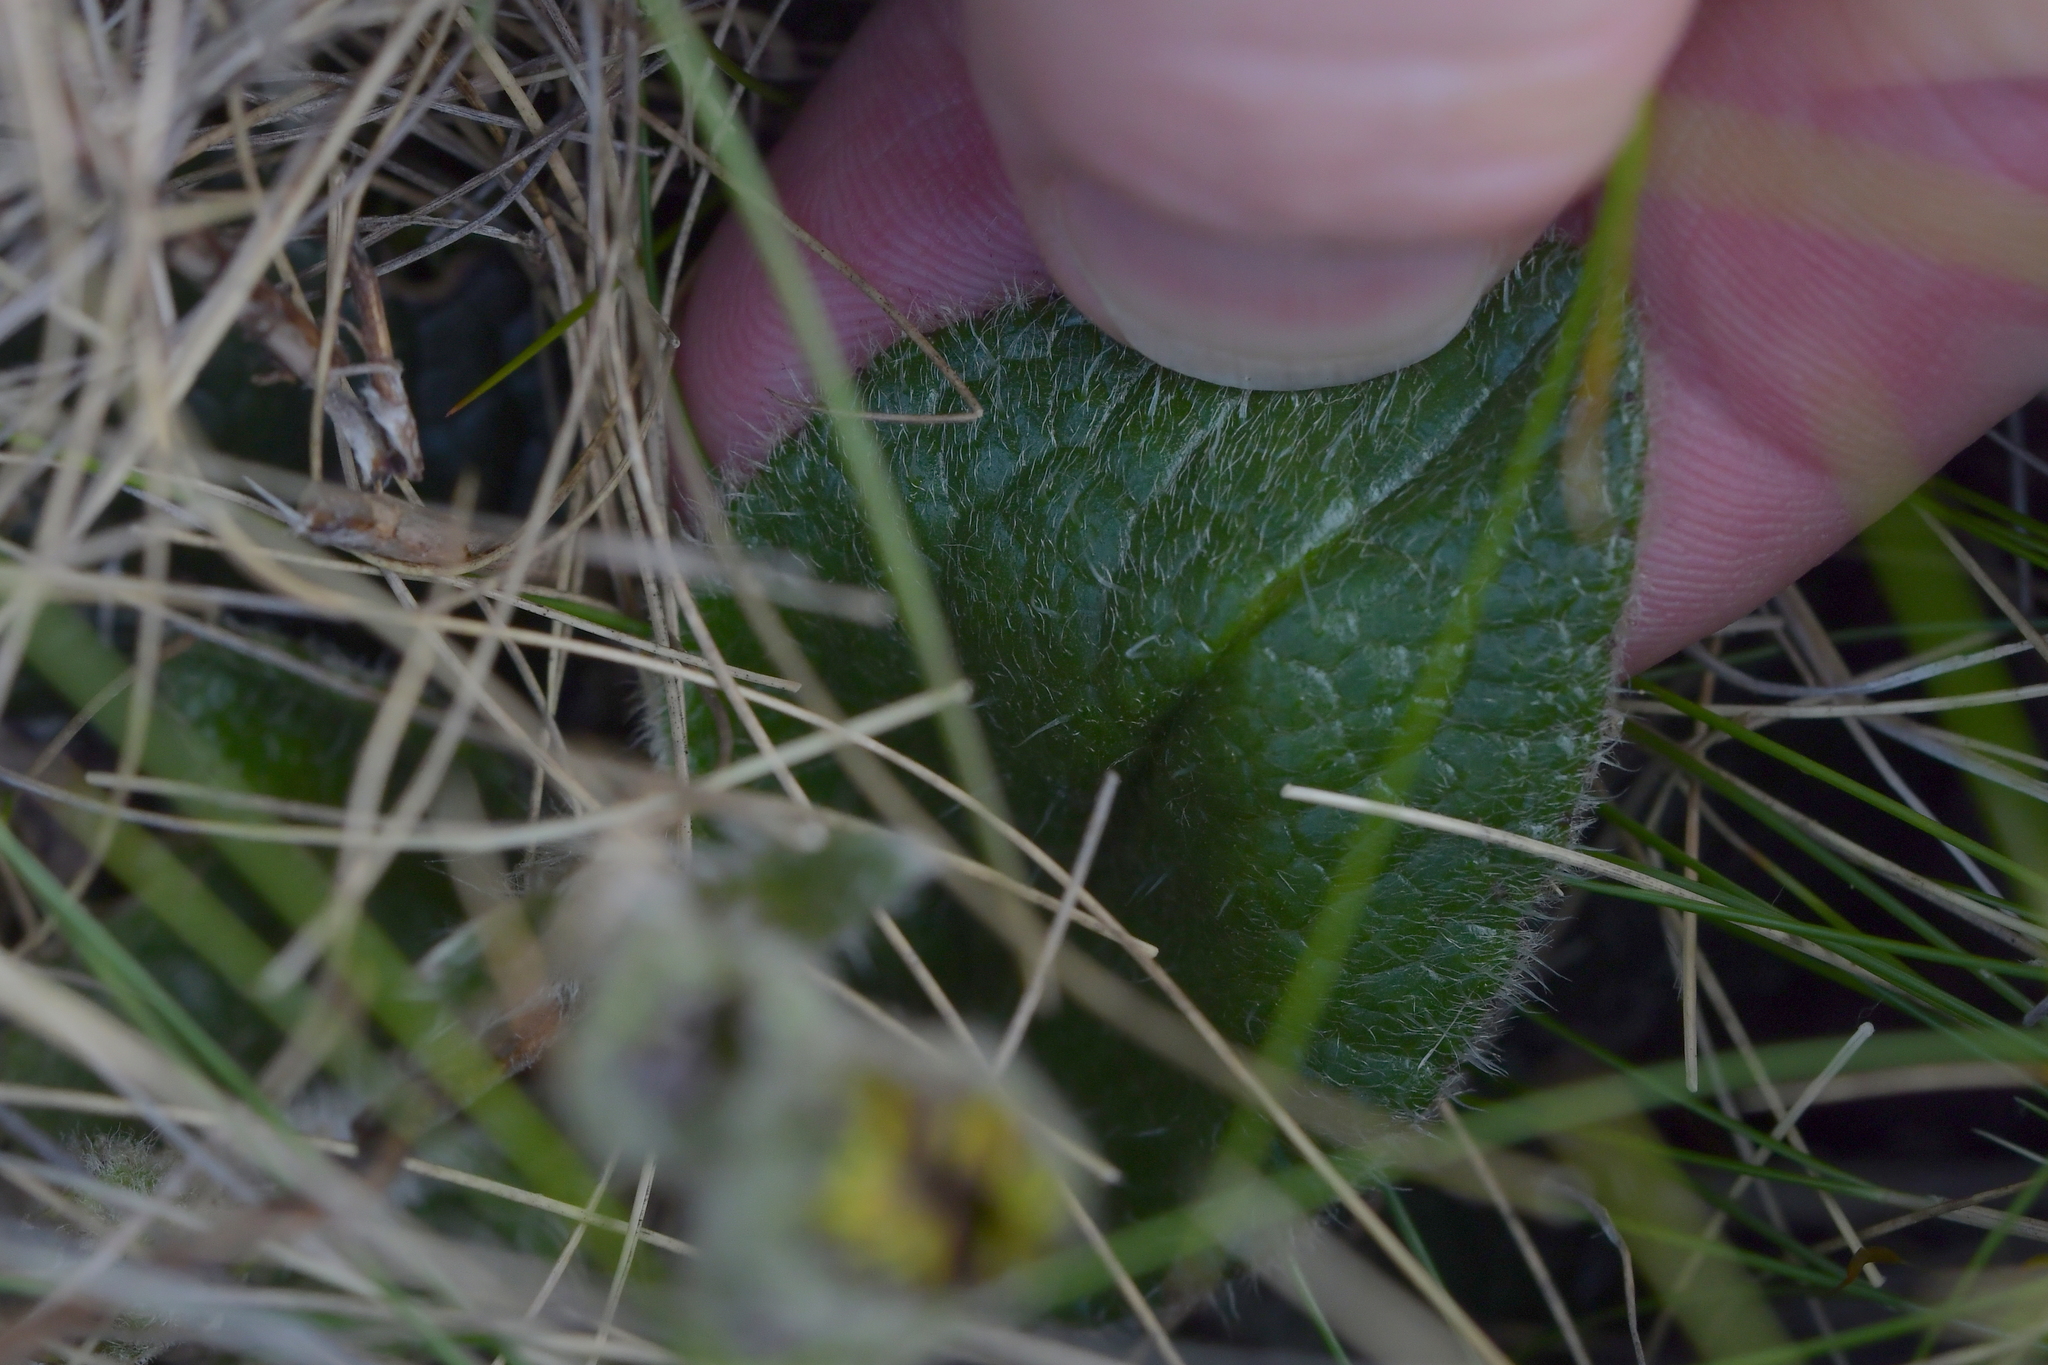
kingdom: Plantae
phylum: Tracheophyta
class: Magnoliopsida
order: Asterales
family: Asteraceae
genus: Brachyglottis
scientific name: Brachyglottis bellidioides
